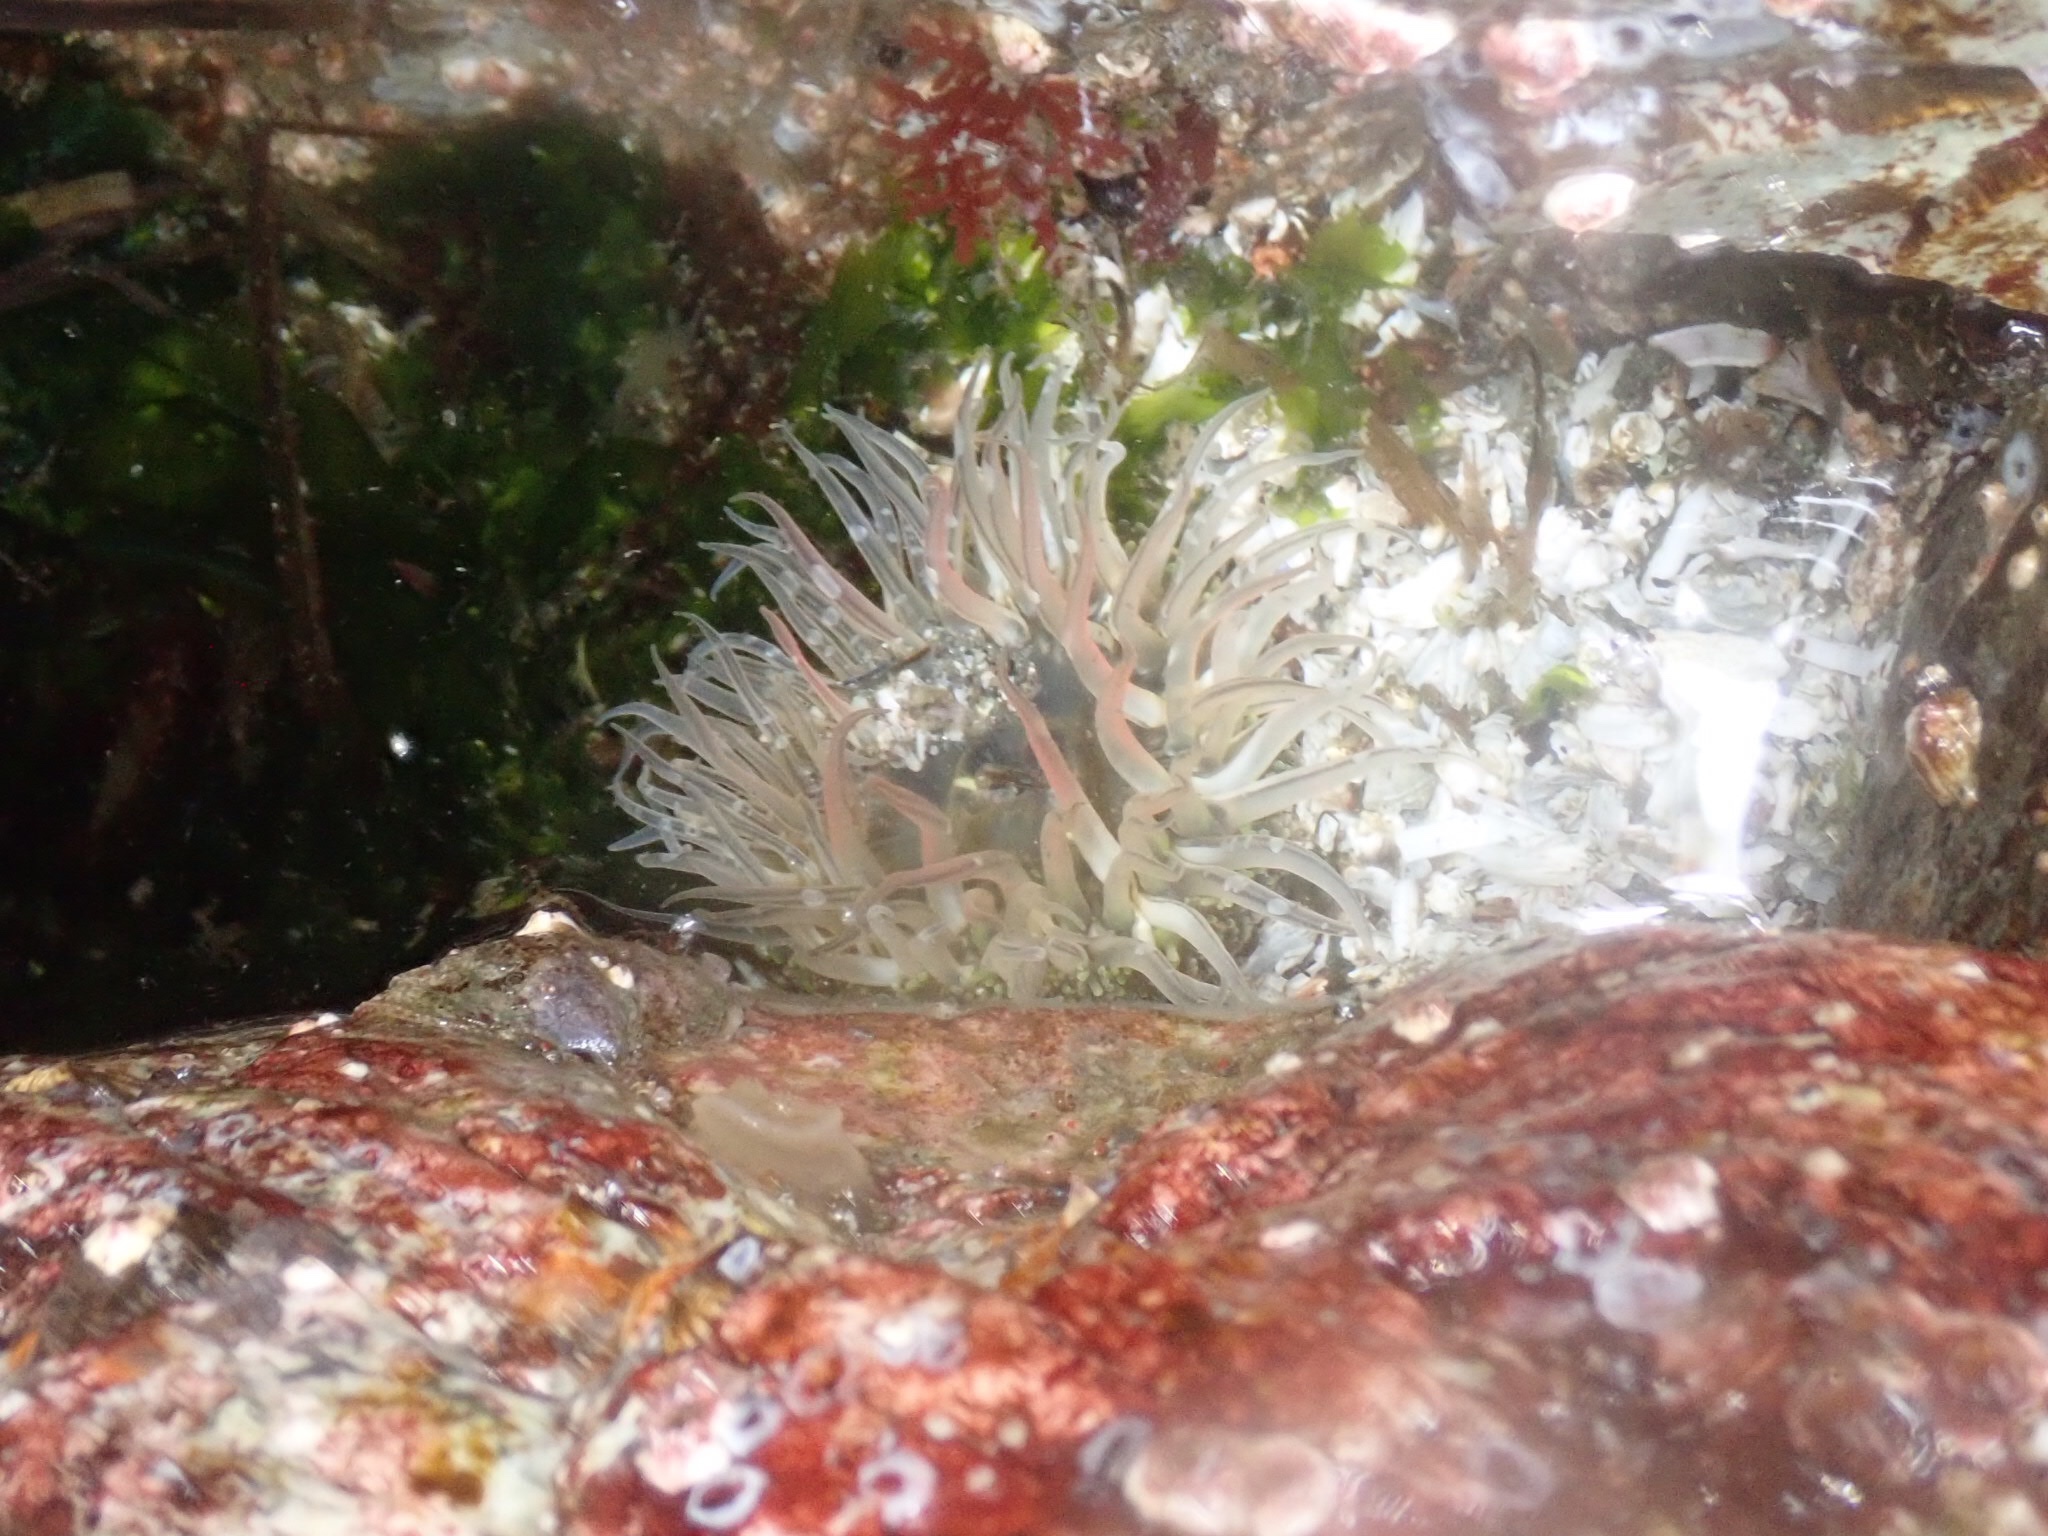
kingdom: Animalia
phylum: Cnidaria
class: Anthozoa
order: Actiniaria
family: Actiniidae
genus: Anthopleura
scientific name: Anthopleura artemisia
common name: Buried sea anemone
